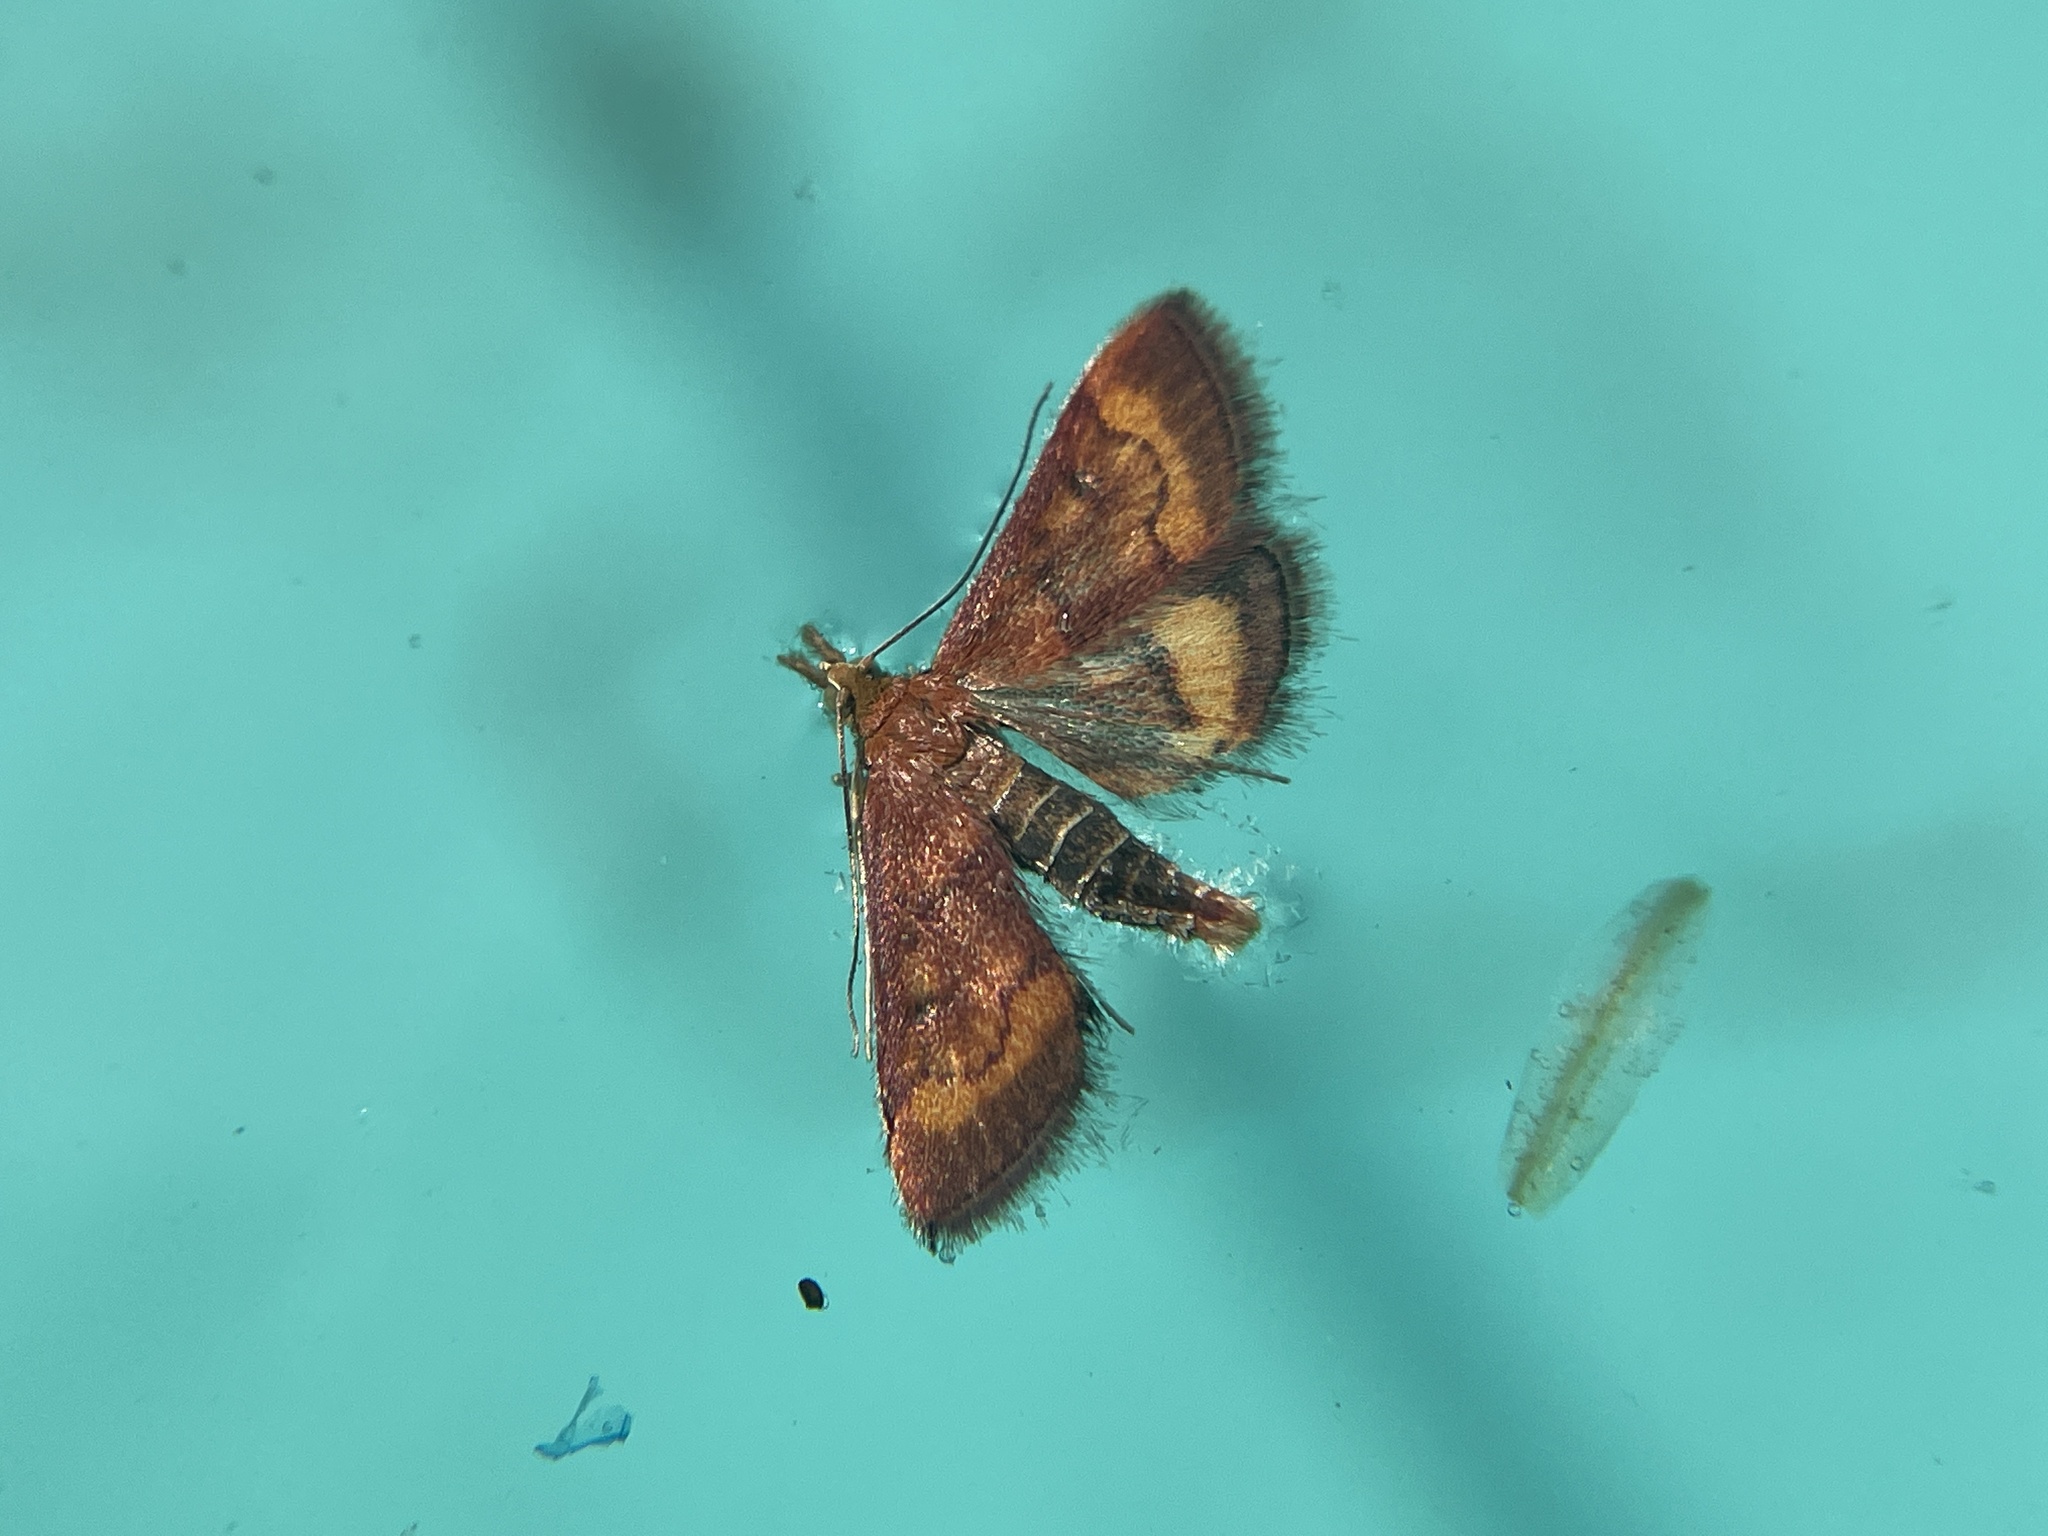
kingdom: Animalia
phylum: Arthropoda
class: Insecta
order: Lepidoptera
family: Crambidae
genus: Pyrausta
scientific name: Pyrausta californicalis
